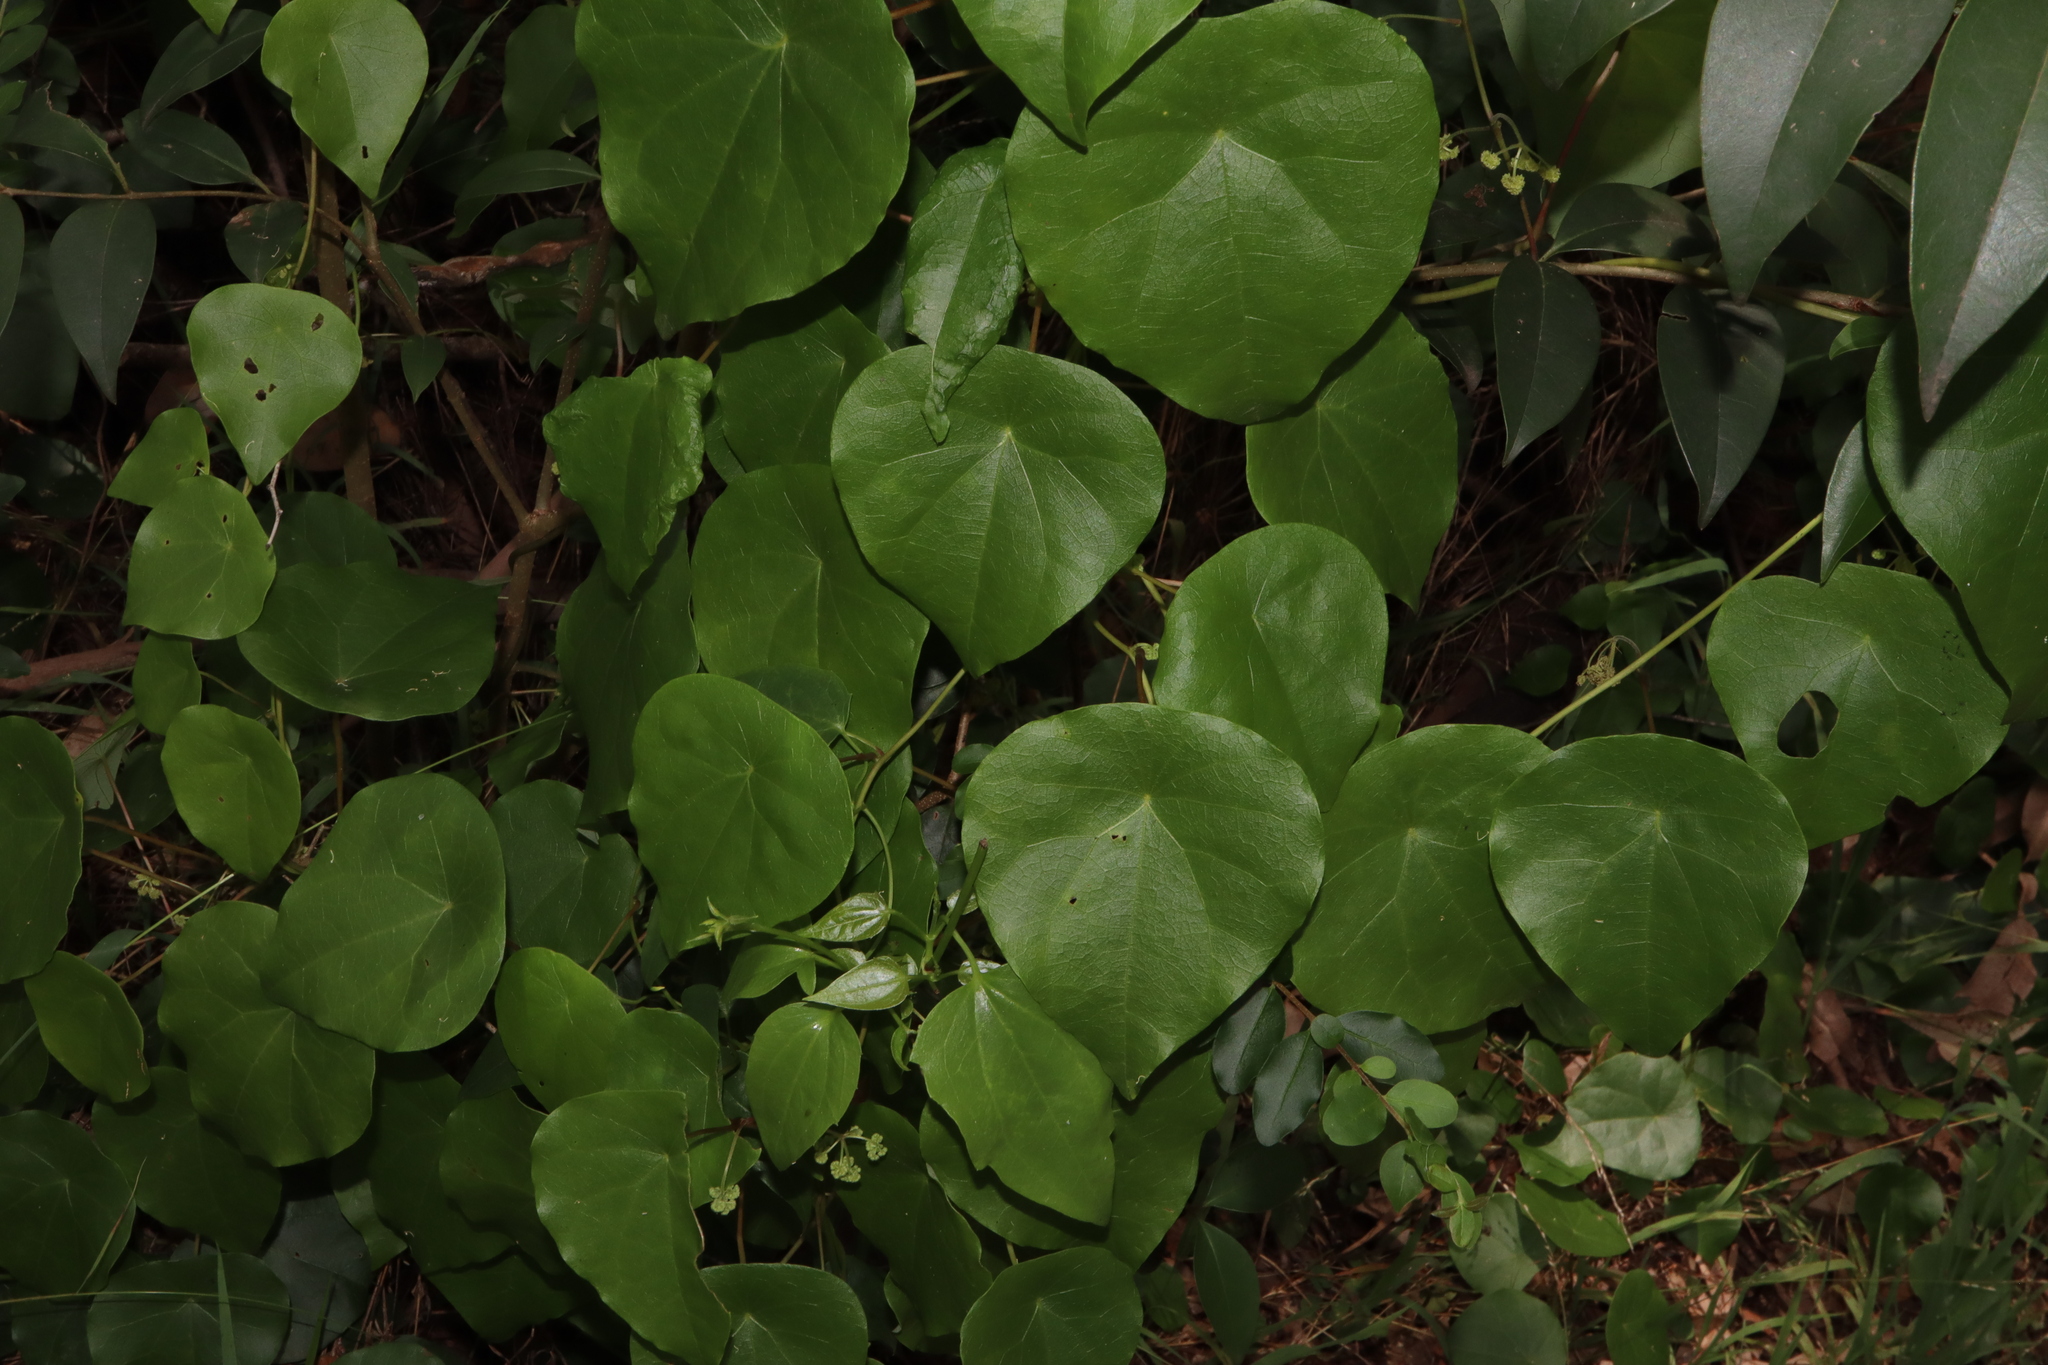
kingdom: Plantae
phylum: Tracheophyta
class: Magnoliopsida
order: Ranunculales
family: Menispermaceae
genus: Stephania
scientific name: Stephania japonica
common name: Snake vine
